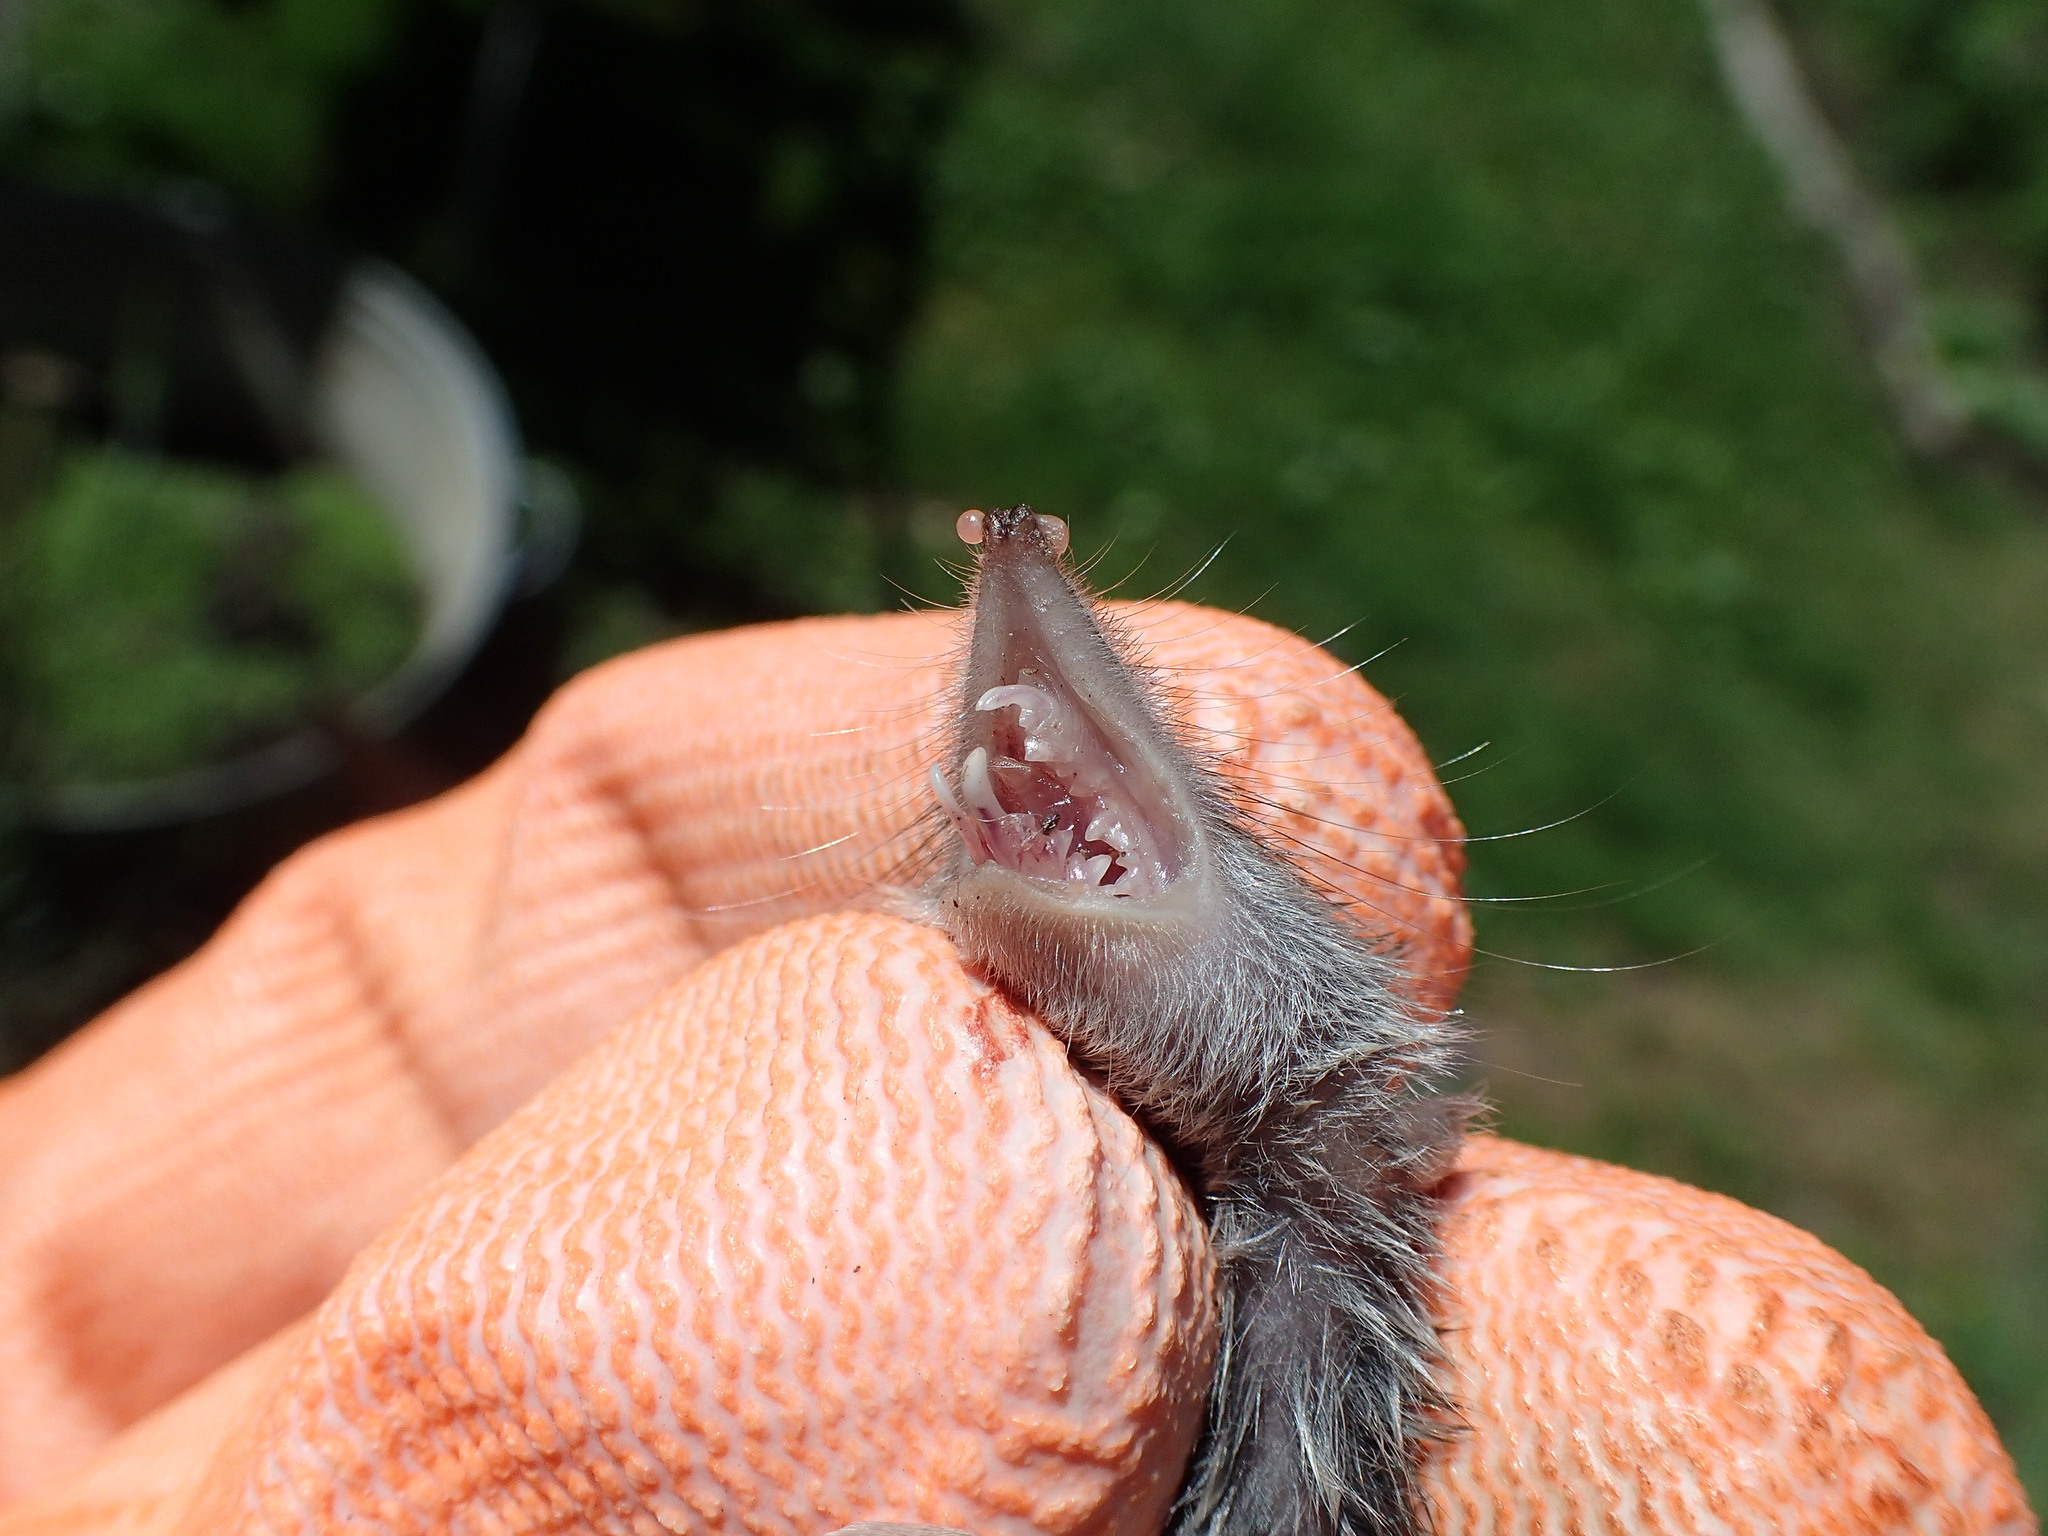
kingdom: Animalia
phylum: Chordata
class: Mammalia
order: Soricomorpha
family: Soricidae
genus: Crocidura
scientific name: Crocidura russula
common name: Greater white-toothed shrew
